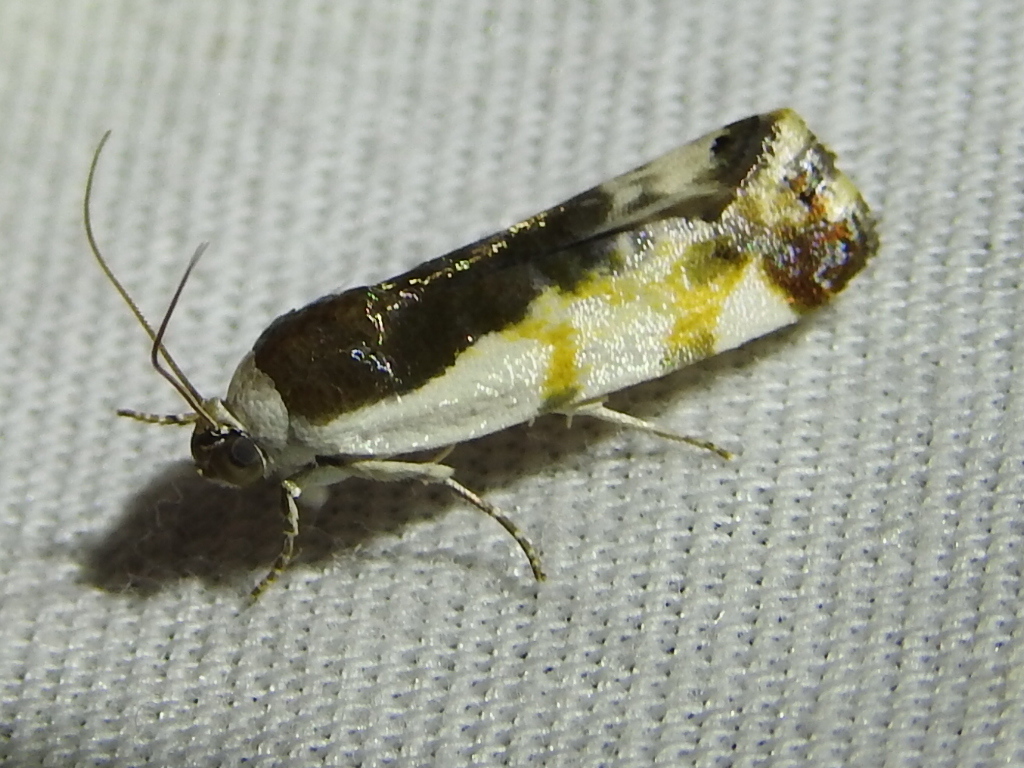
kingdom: Animalia
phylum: Arthropoda
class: Insecta
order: Lepidoptera
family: Noctuidae
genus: Acontia
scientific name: Acontia Tarache lanceolata
